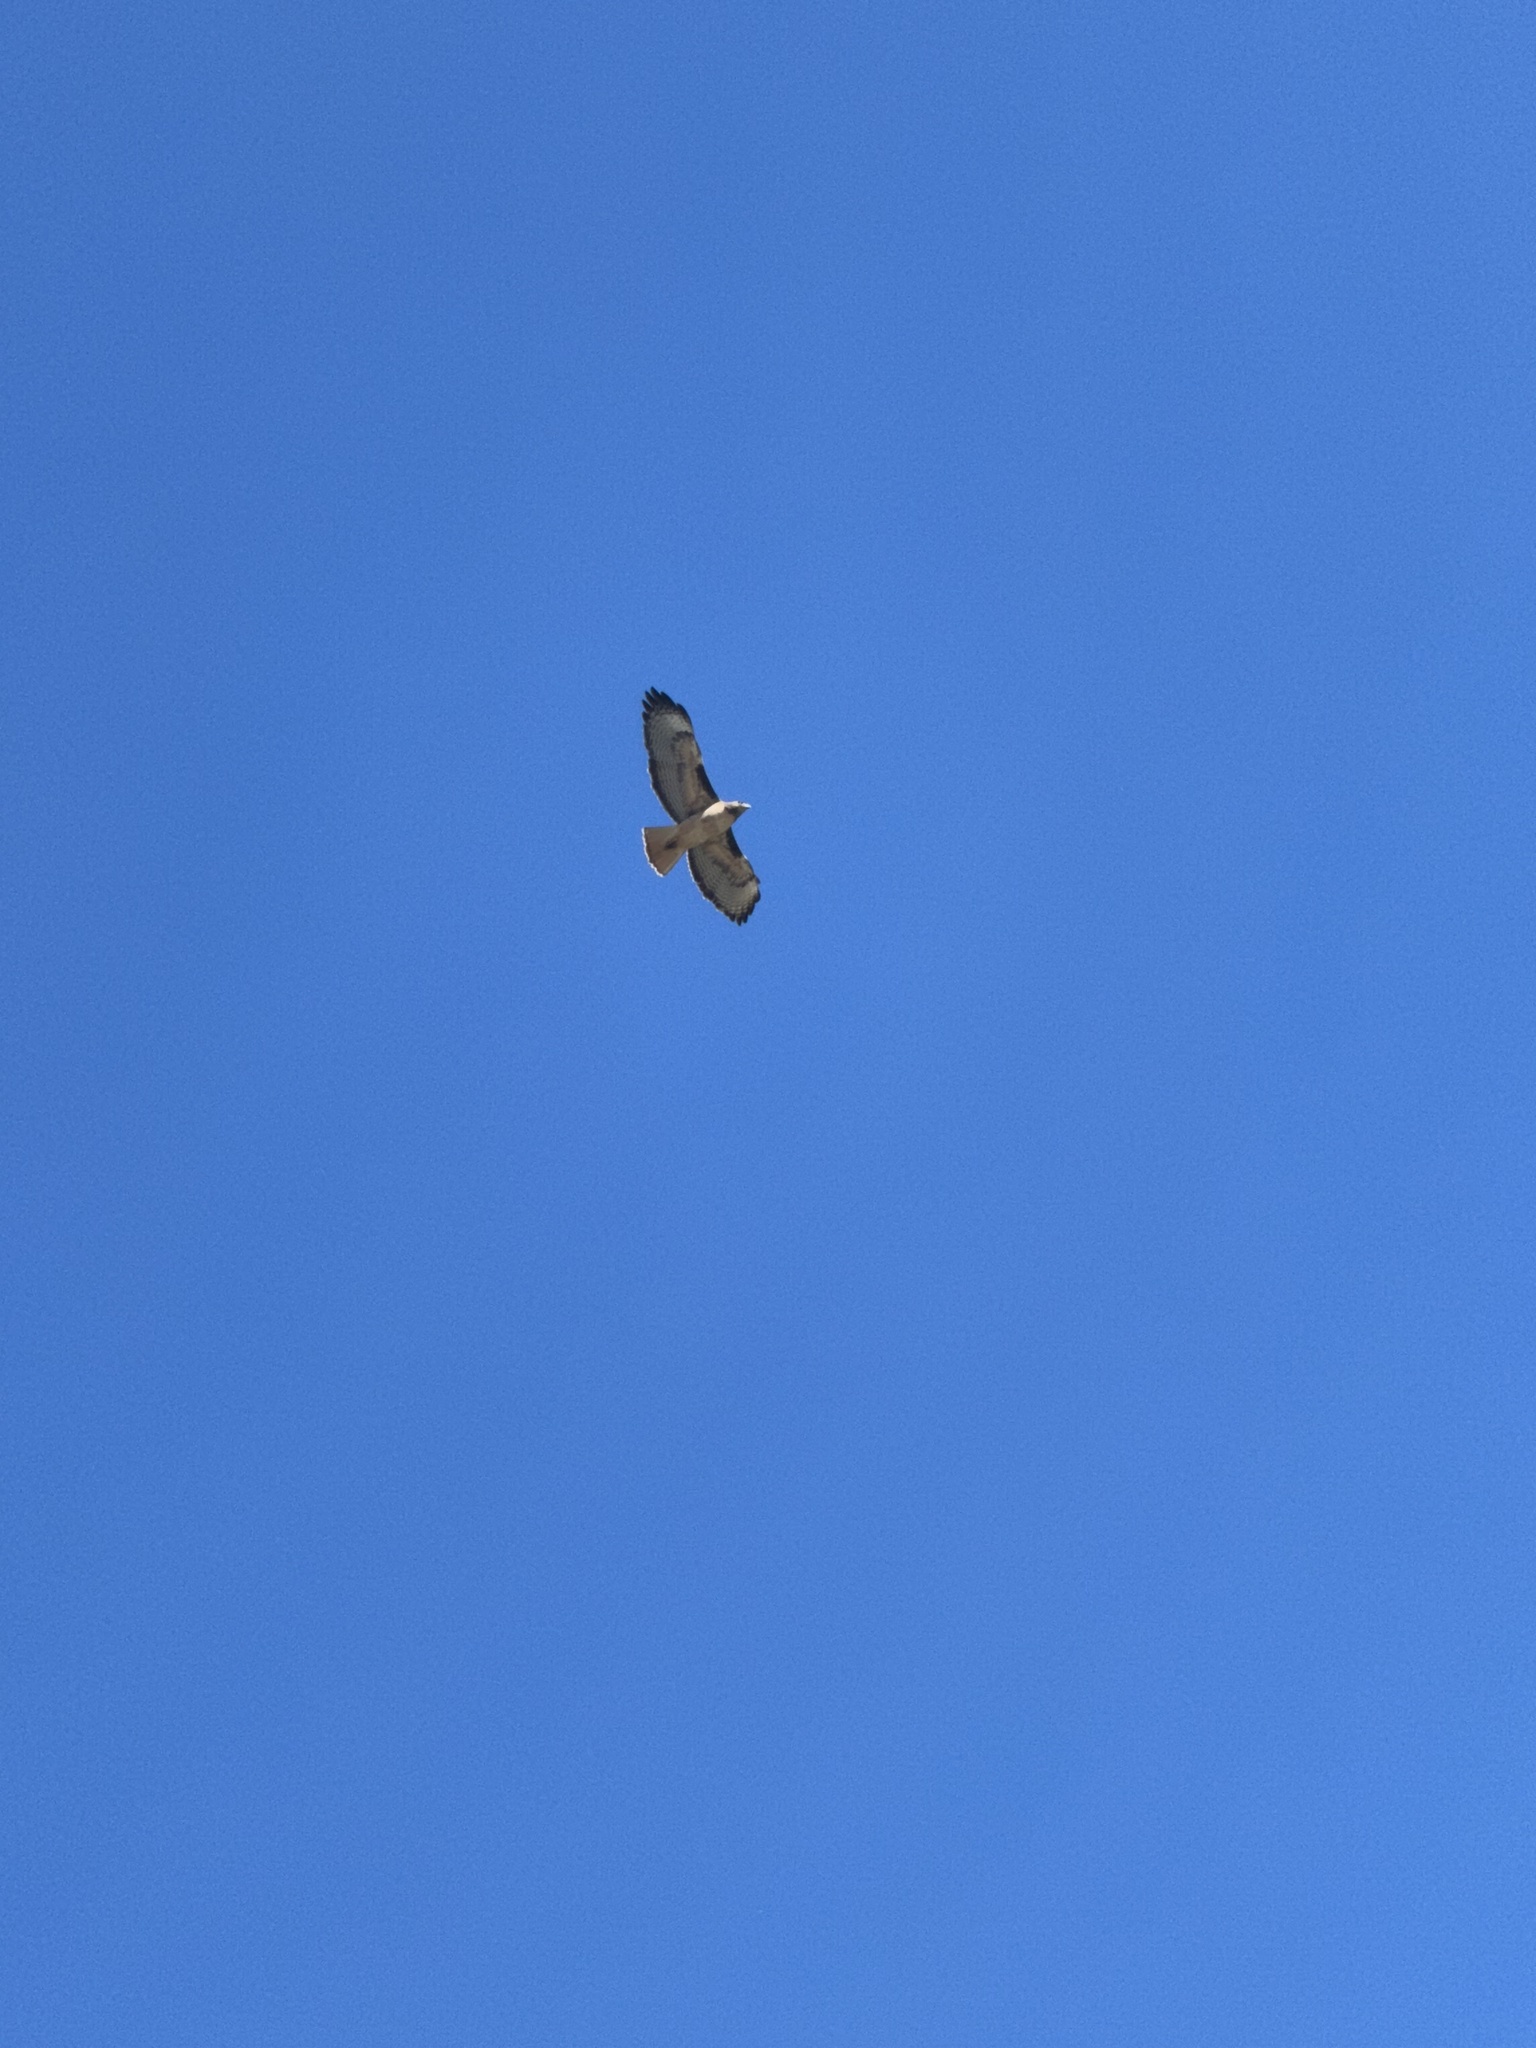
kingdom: Animalia
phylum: Chordata
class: Aves
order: Accipitriformes
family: Accipitridae
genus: Buteo
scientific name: Buteo jamaicensis
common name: Red-tailed hawk
